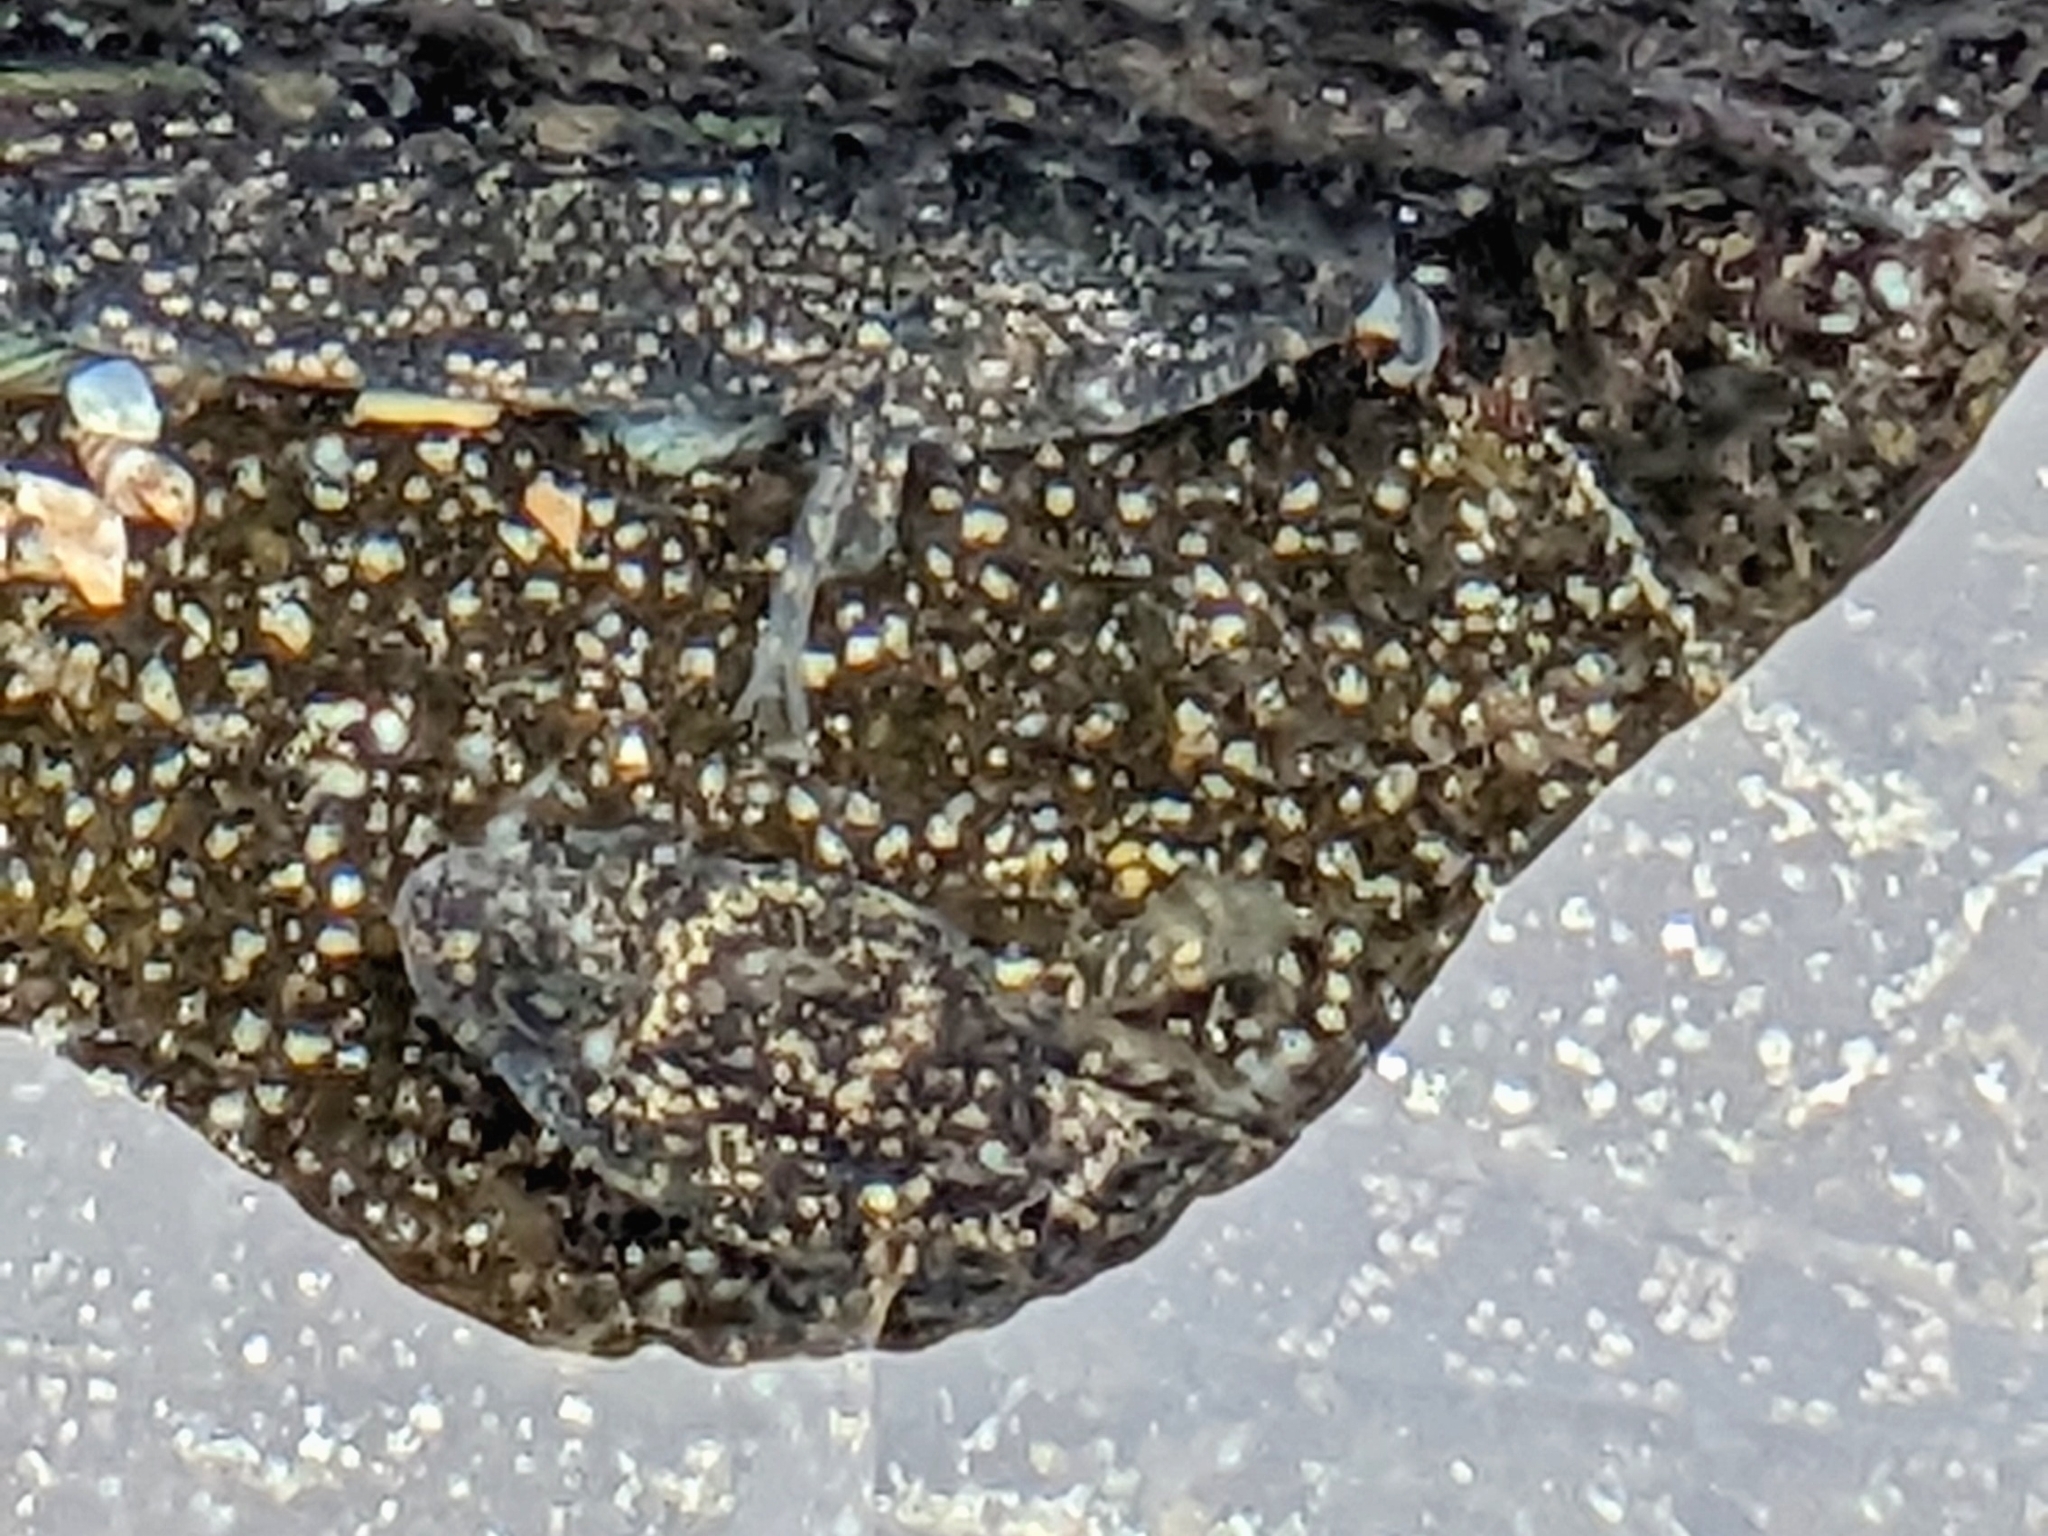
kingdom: Animalia
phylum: Chordata
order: Perciformes
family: Gobiidae
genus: Bathygobius
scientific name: Bathygobius
